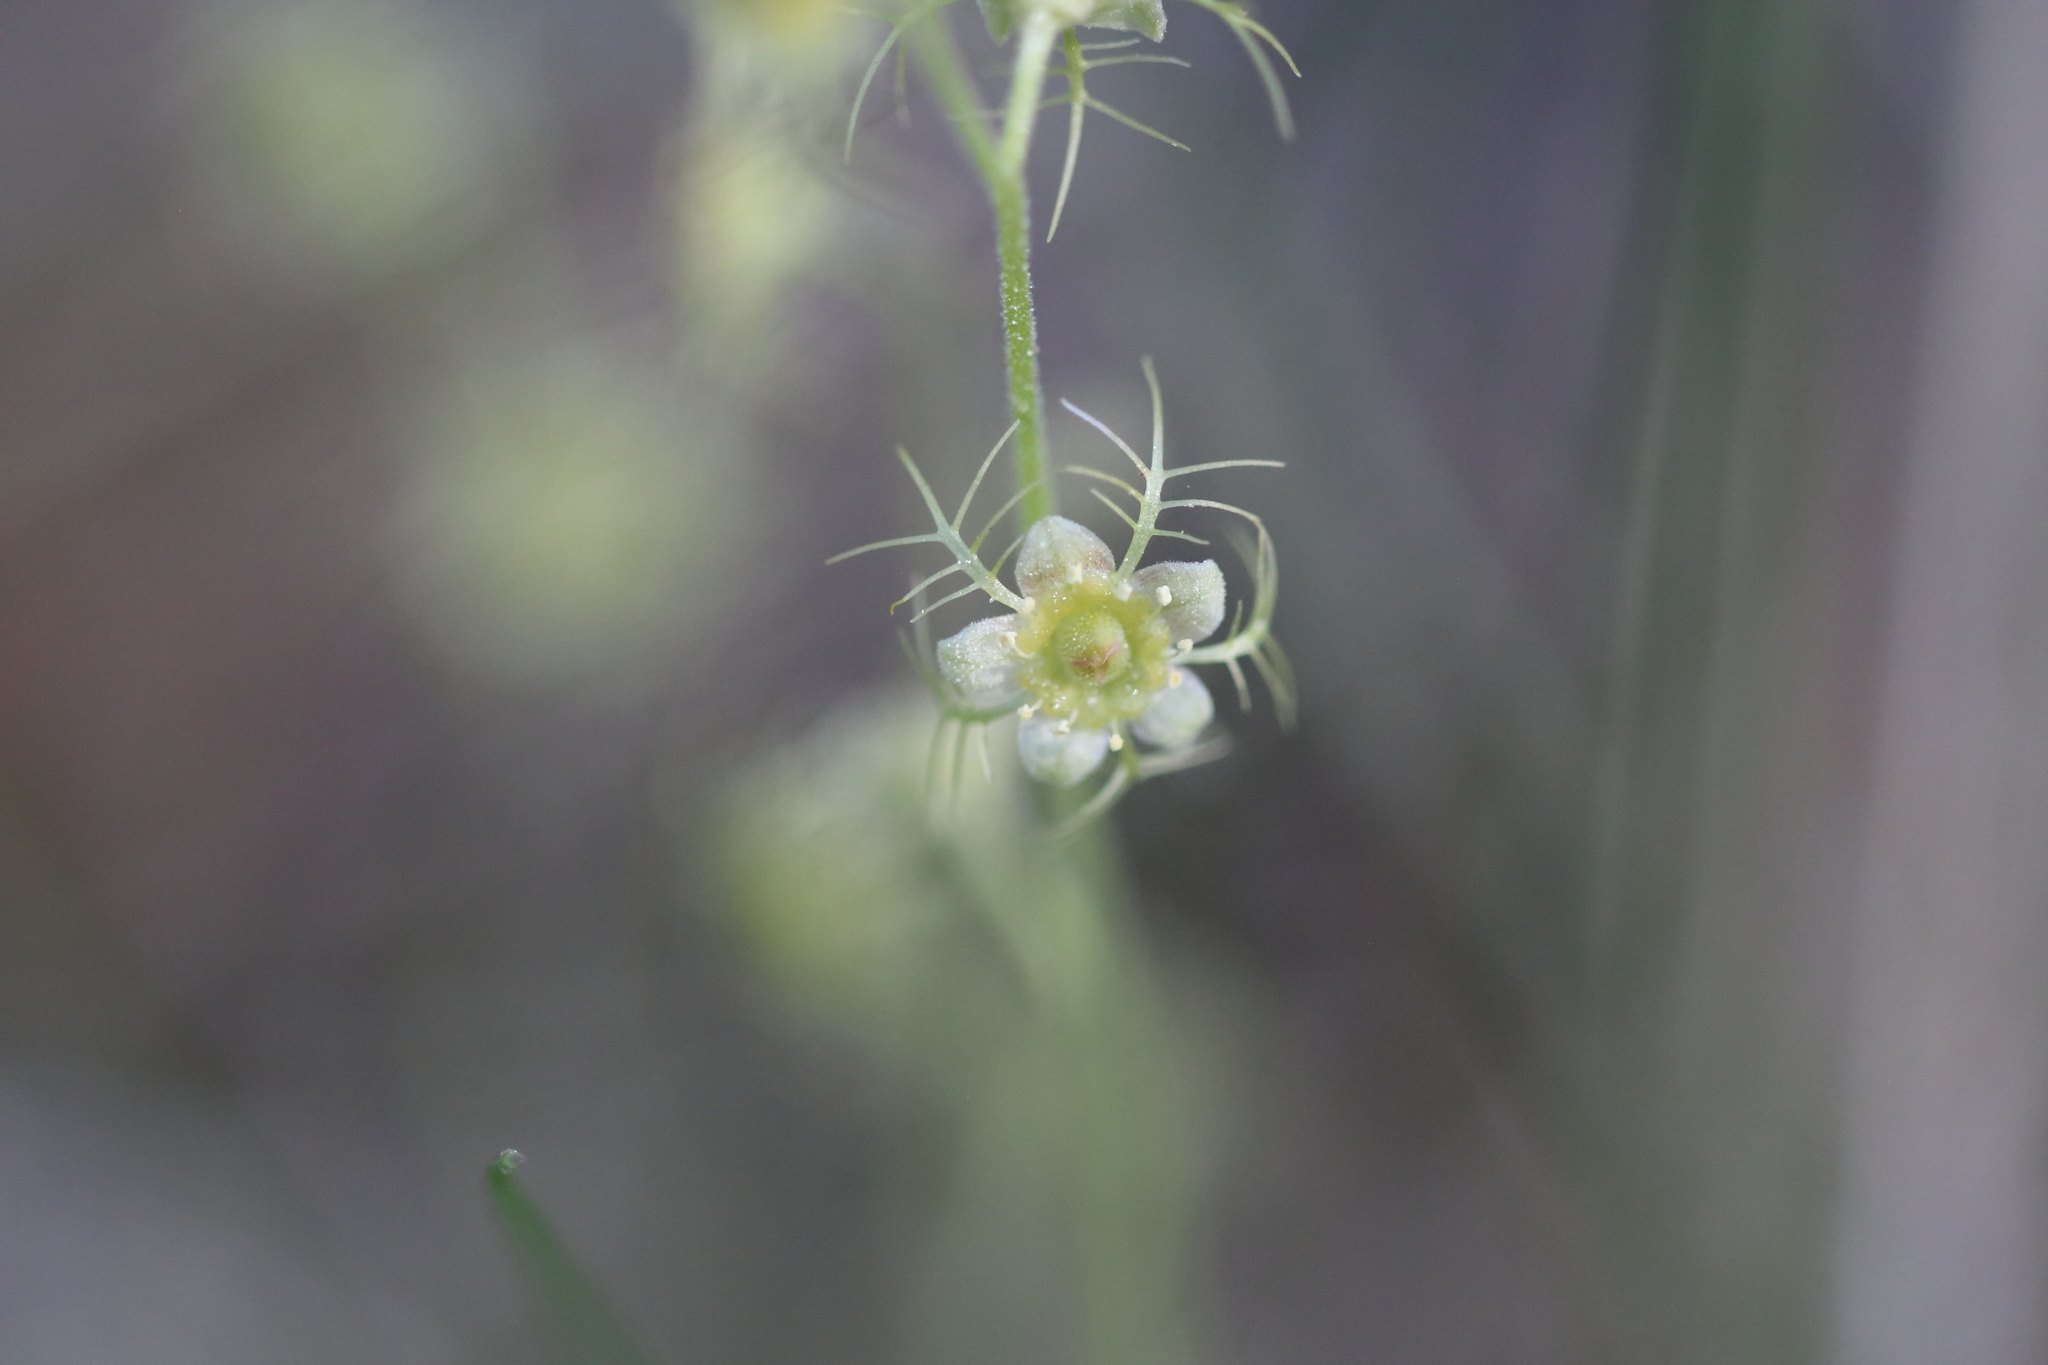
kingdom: Plantae
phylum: Tracheophyta
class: Magnoliopsida
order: Saxifragales
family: Saxifragaceae
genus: Mitella
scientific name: Mitella nuda
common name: Bare-stemmed bishop's-cap
